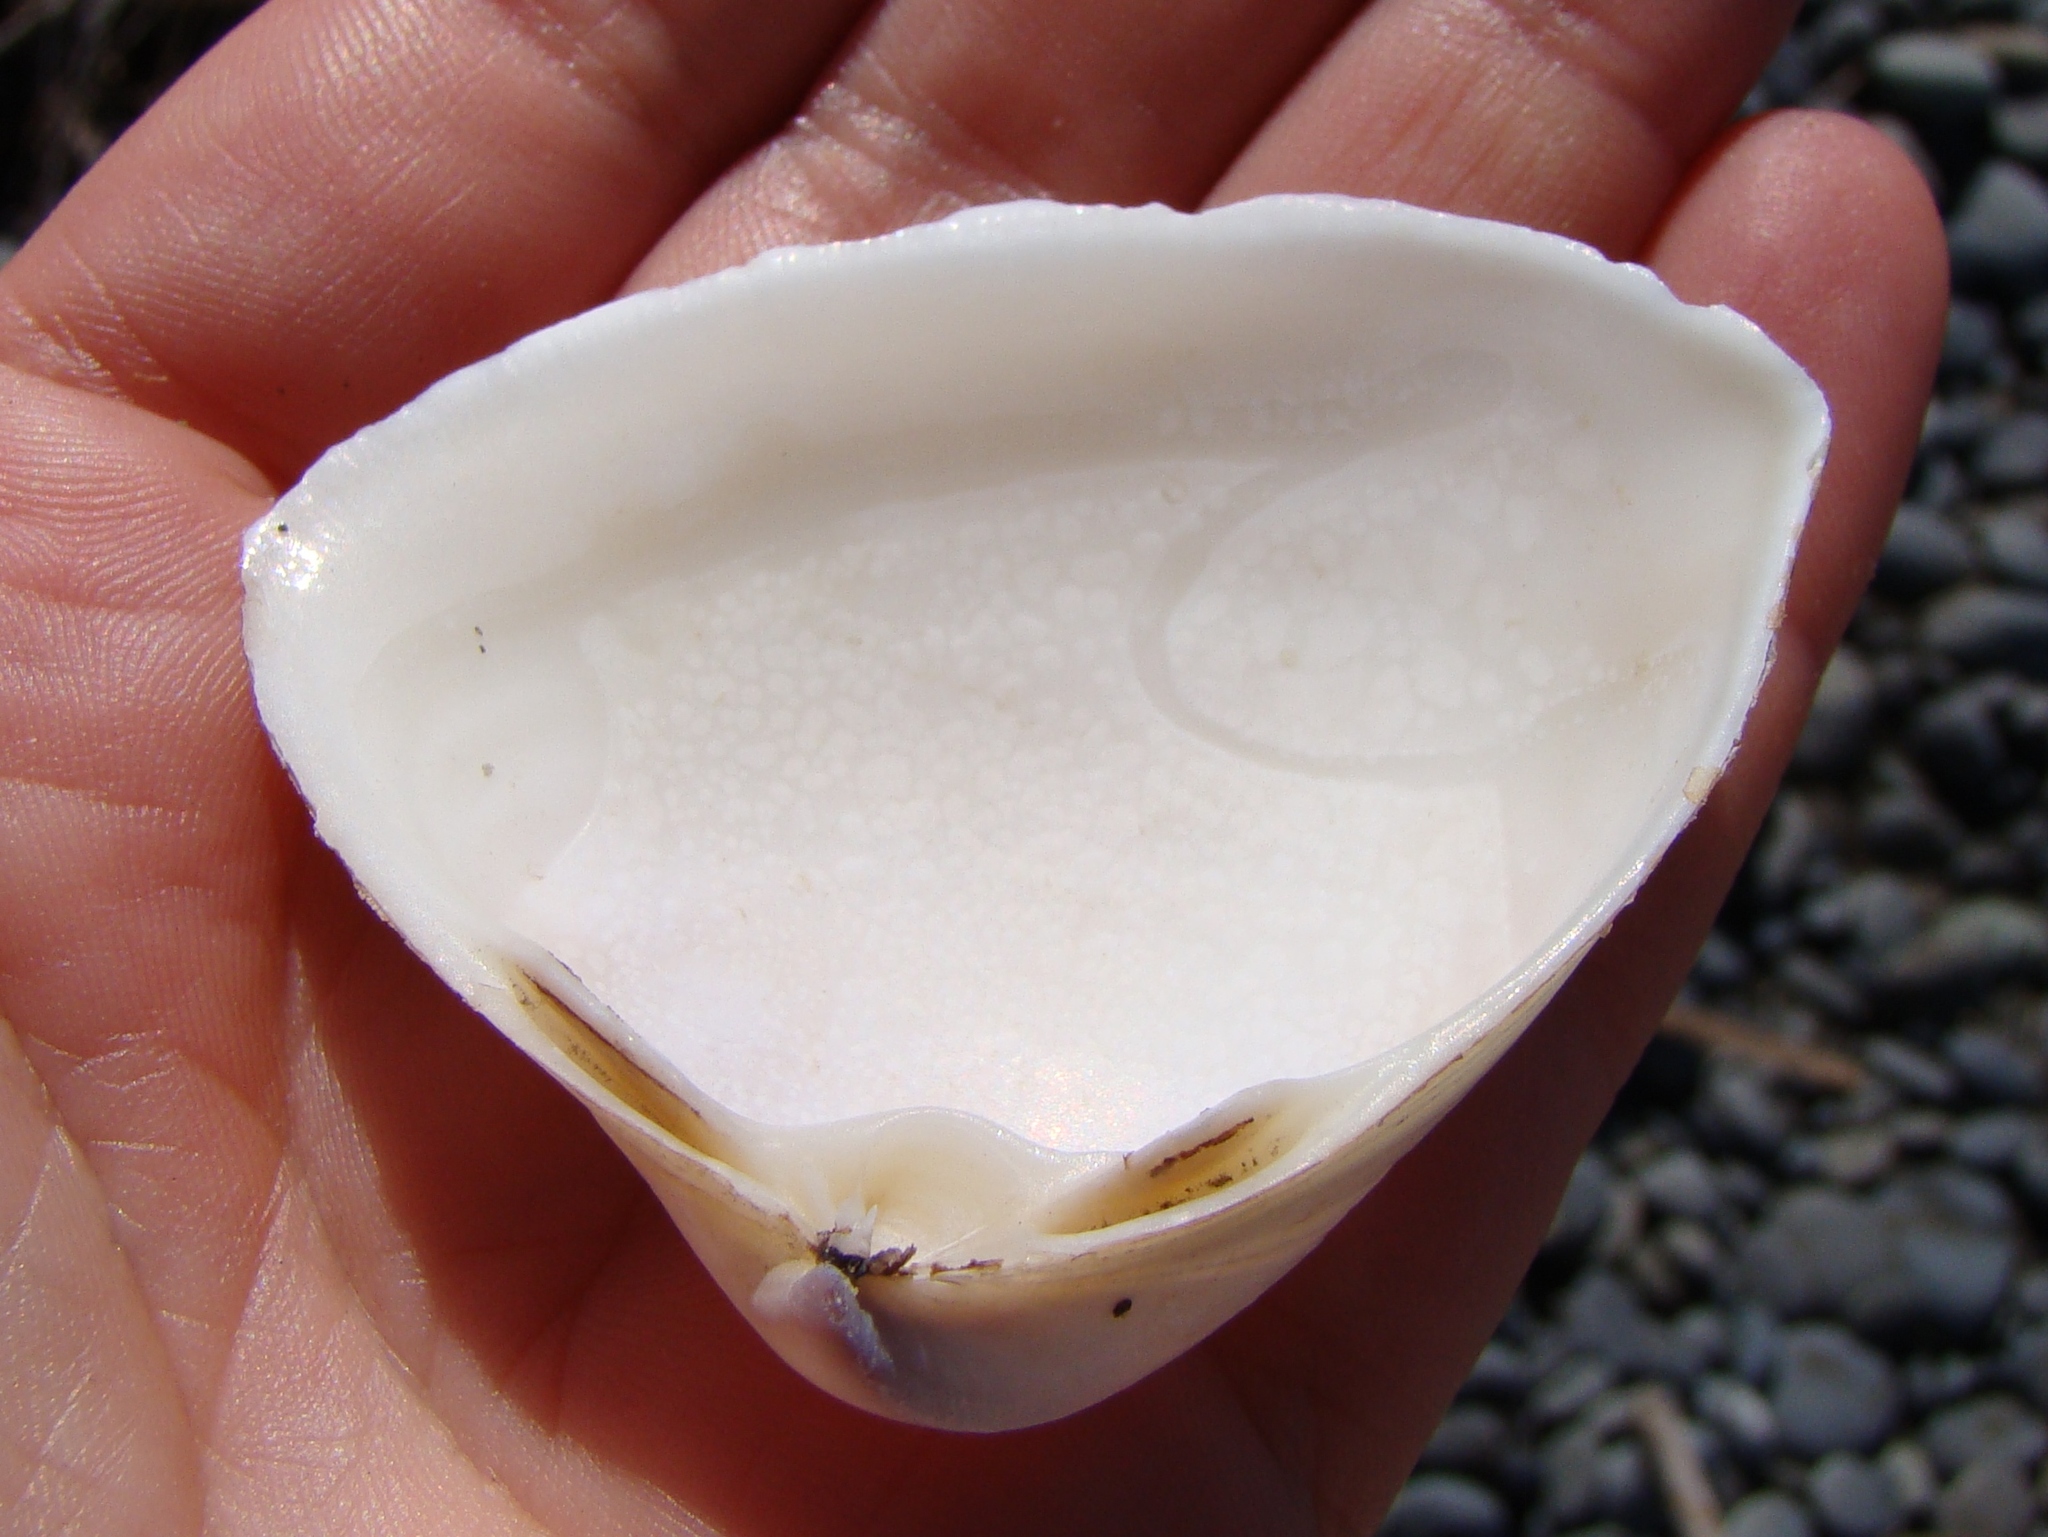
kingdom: Animalia
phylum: Mollusca
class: Bivalvia
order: Venerida
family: Mactridae
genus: Crassula
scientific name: Crassula aequilatera
